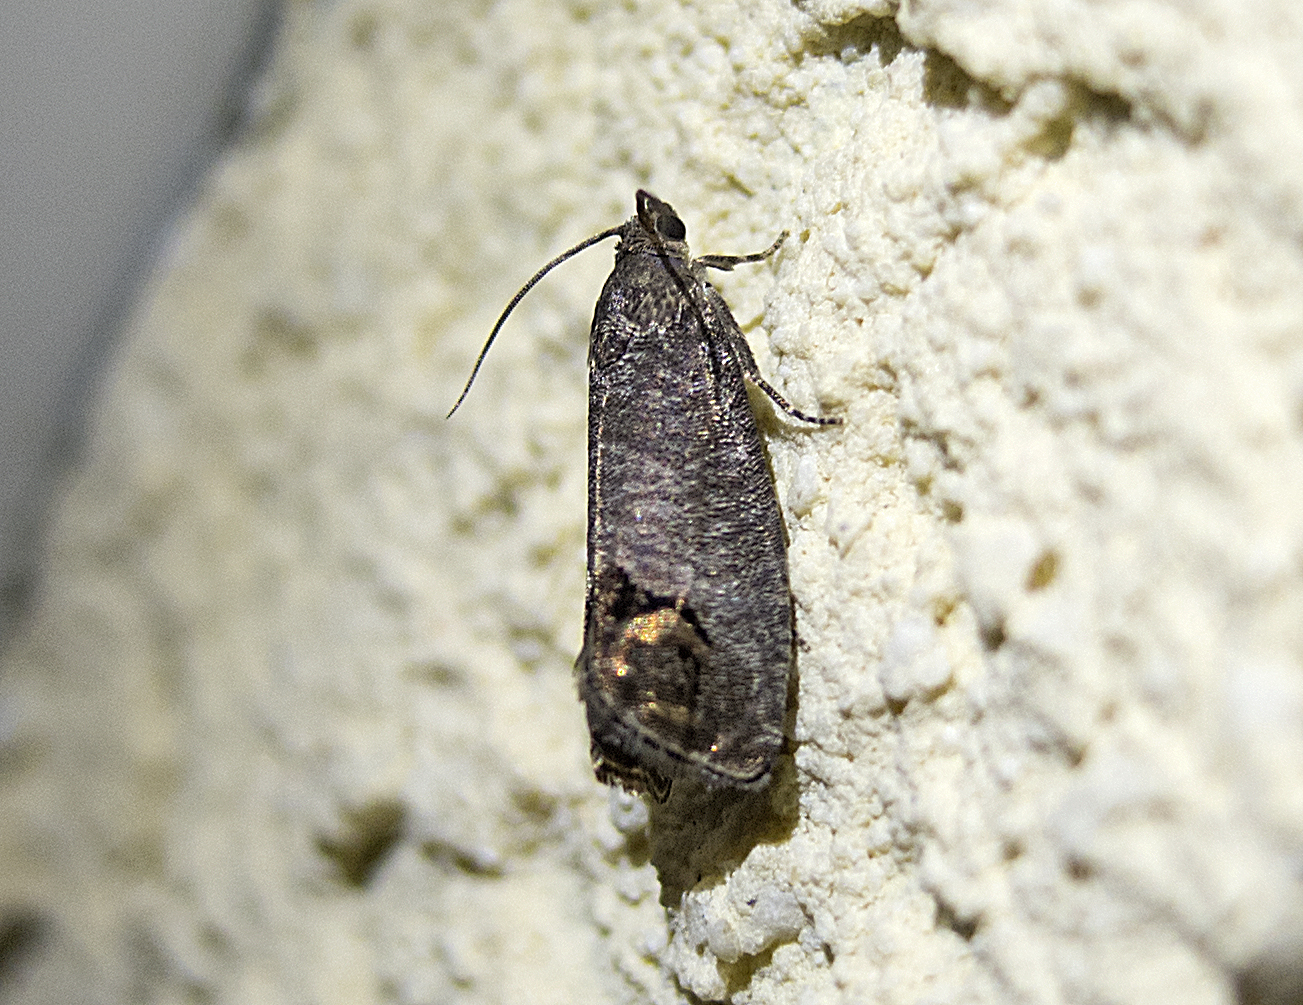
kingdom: Animalia
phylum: Arthropoda
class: Insecta
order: Lepidoptera
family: Tortricidae
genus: Cydia
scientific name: Cydia pomonella
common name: Codling moth
